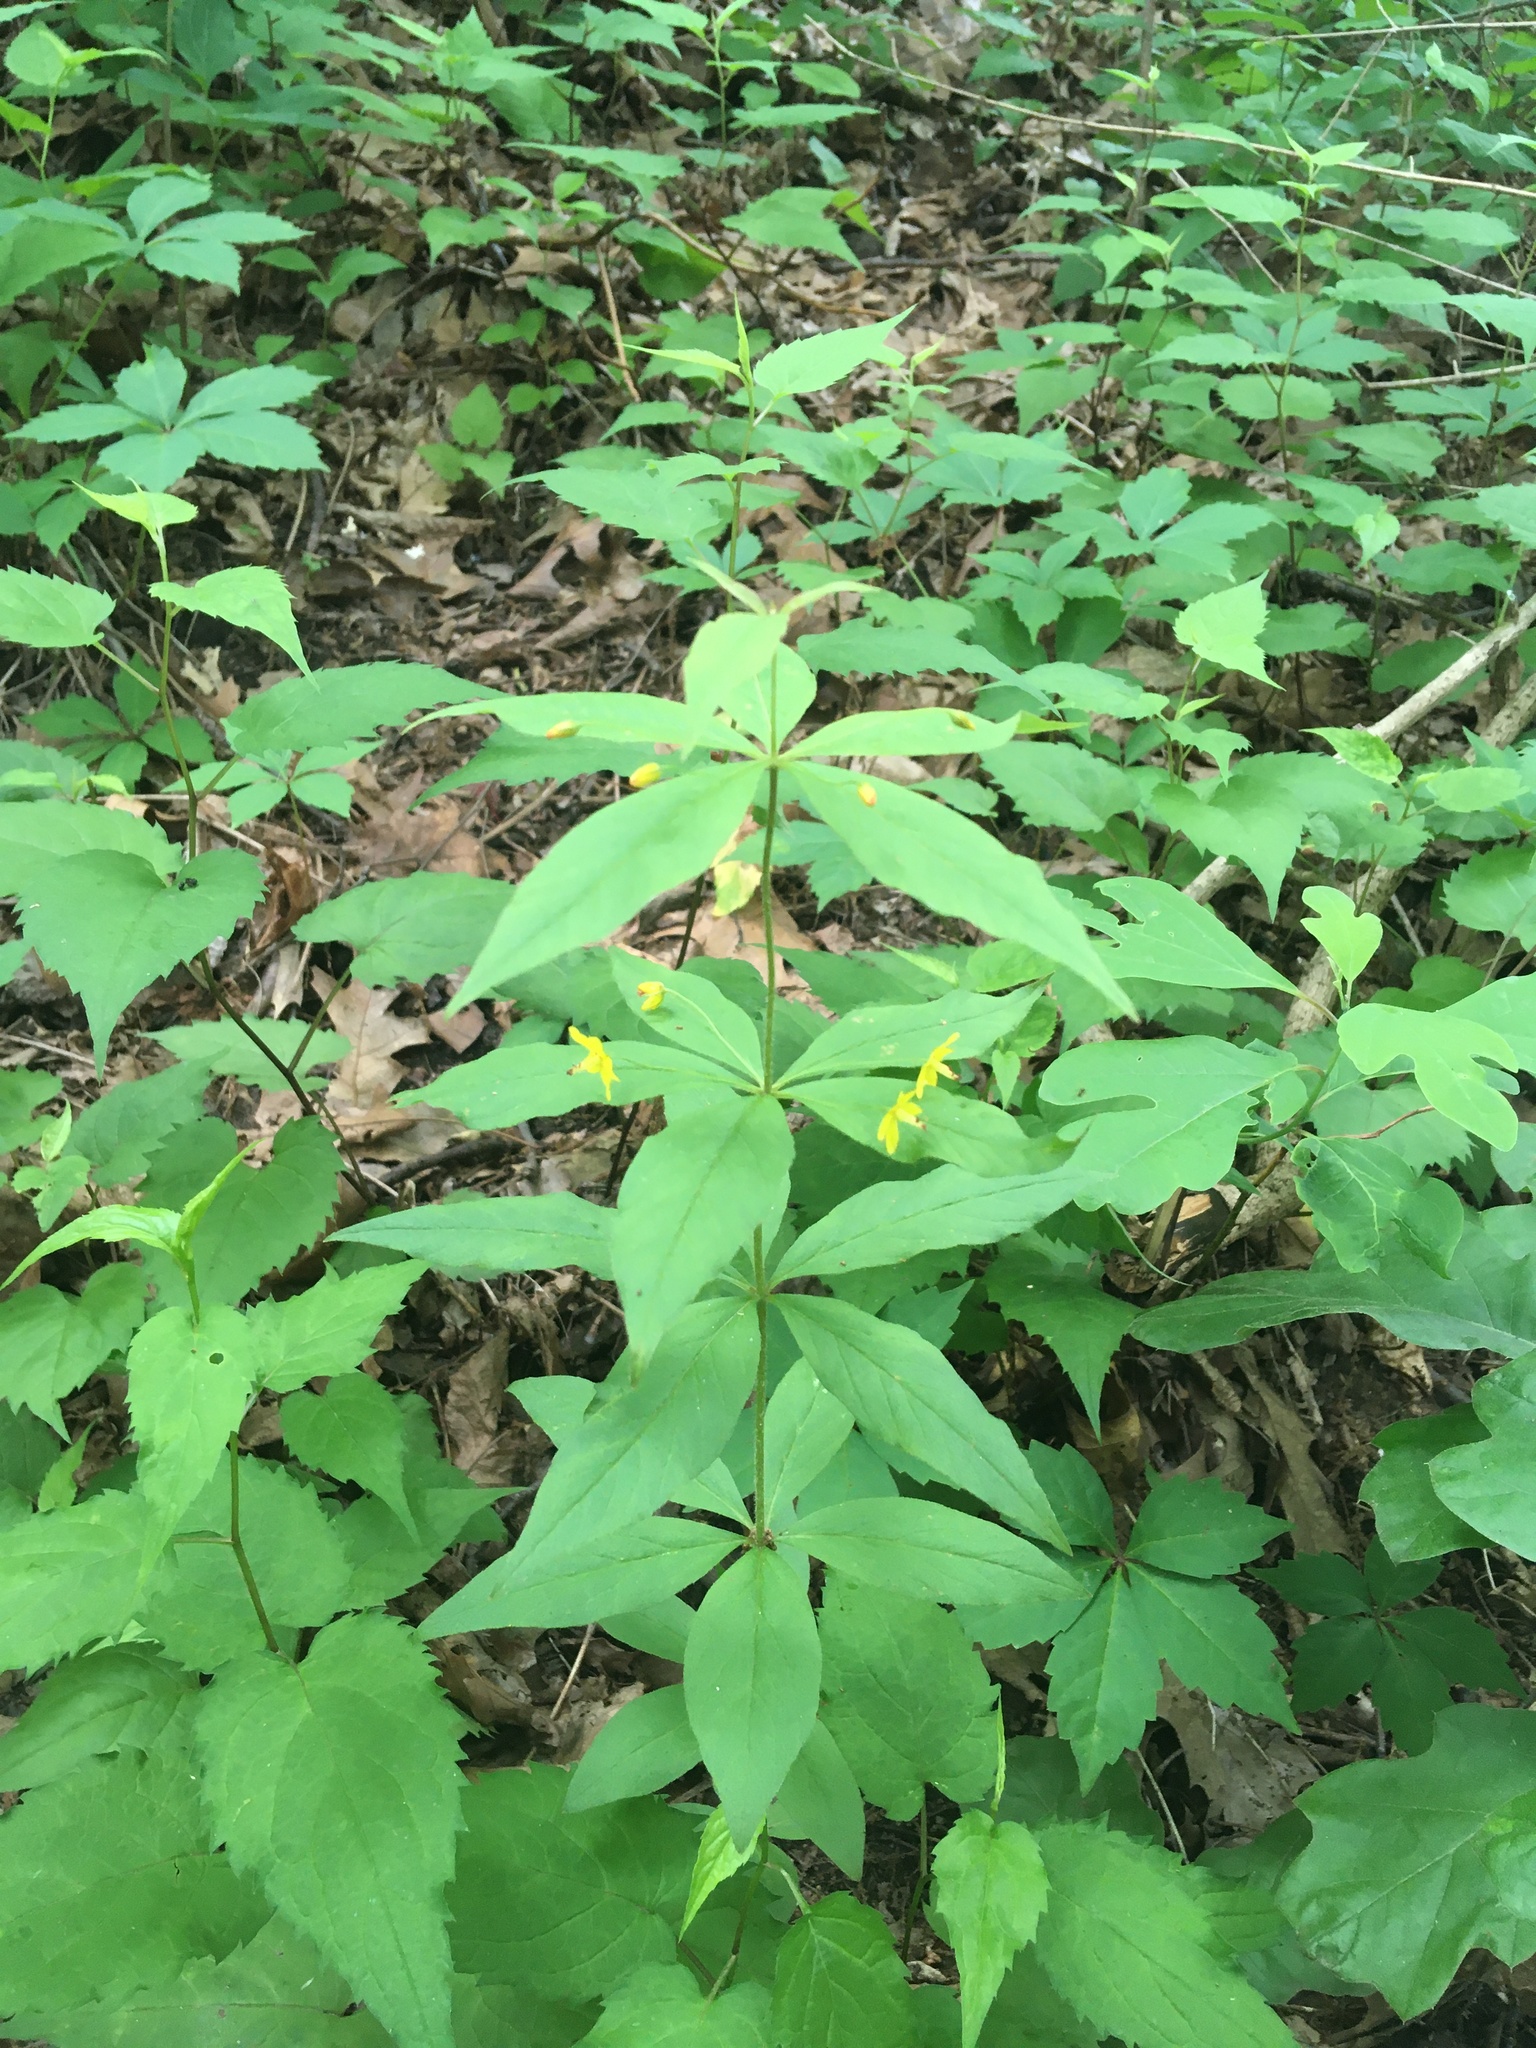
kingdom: Plantae
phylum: Tracheophyta
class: Magnoliopsida
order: Ericales
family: Primulaceae
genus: Lysimachia
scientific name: Lysimachia quadrifolia
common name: Whorled loosestrife
